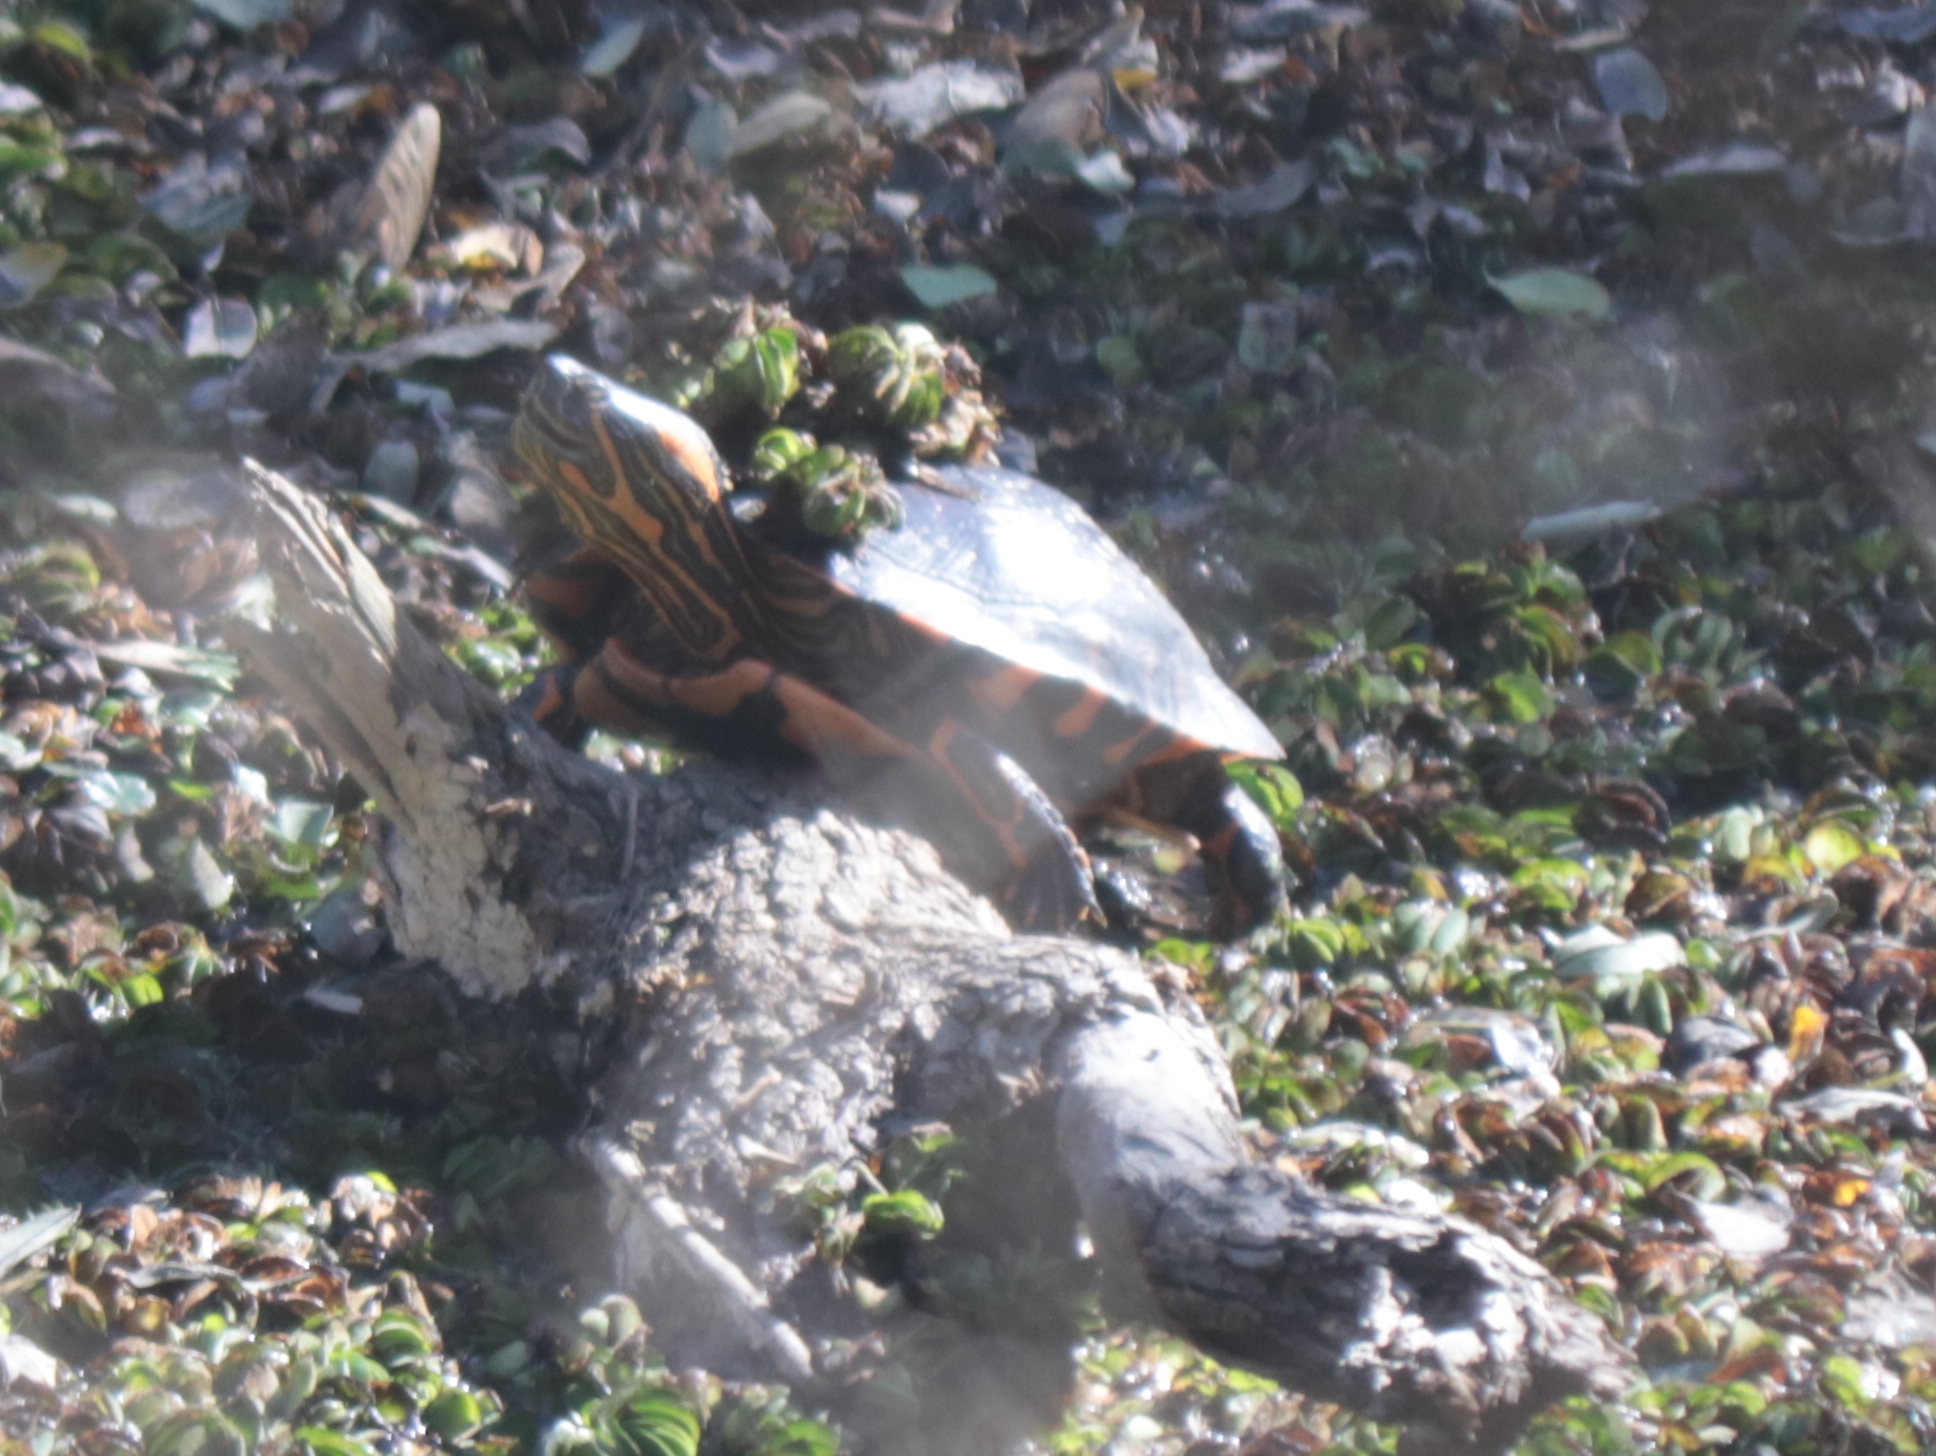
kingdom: Animalia
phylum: Chordata
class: Testudines
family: Emydidae
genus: Trachemys
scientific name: Trachemys dorbigni
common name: Black-bellied slider
